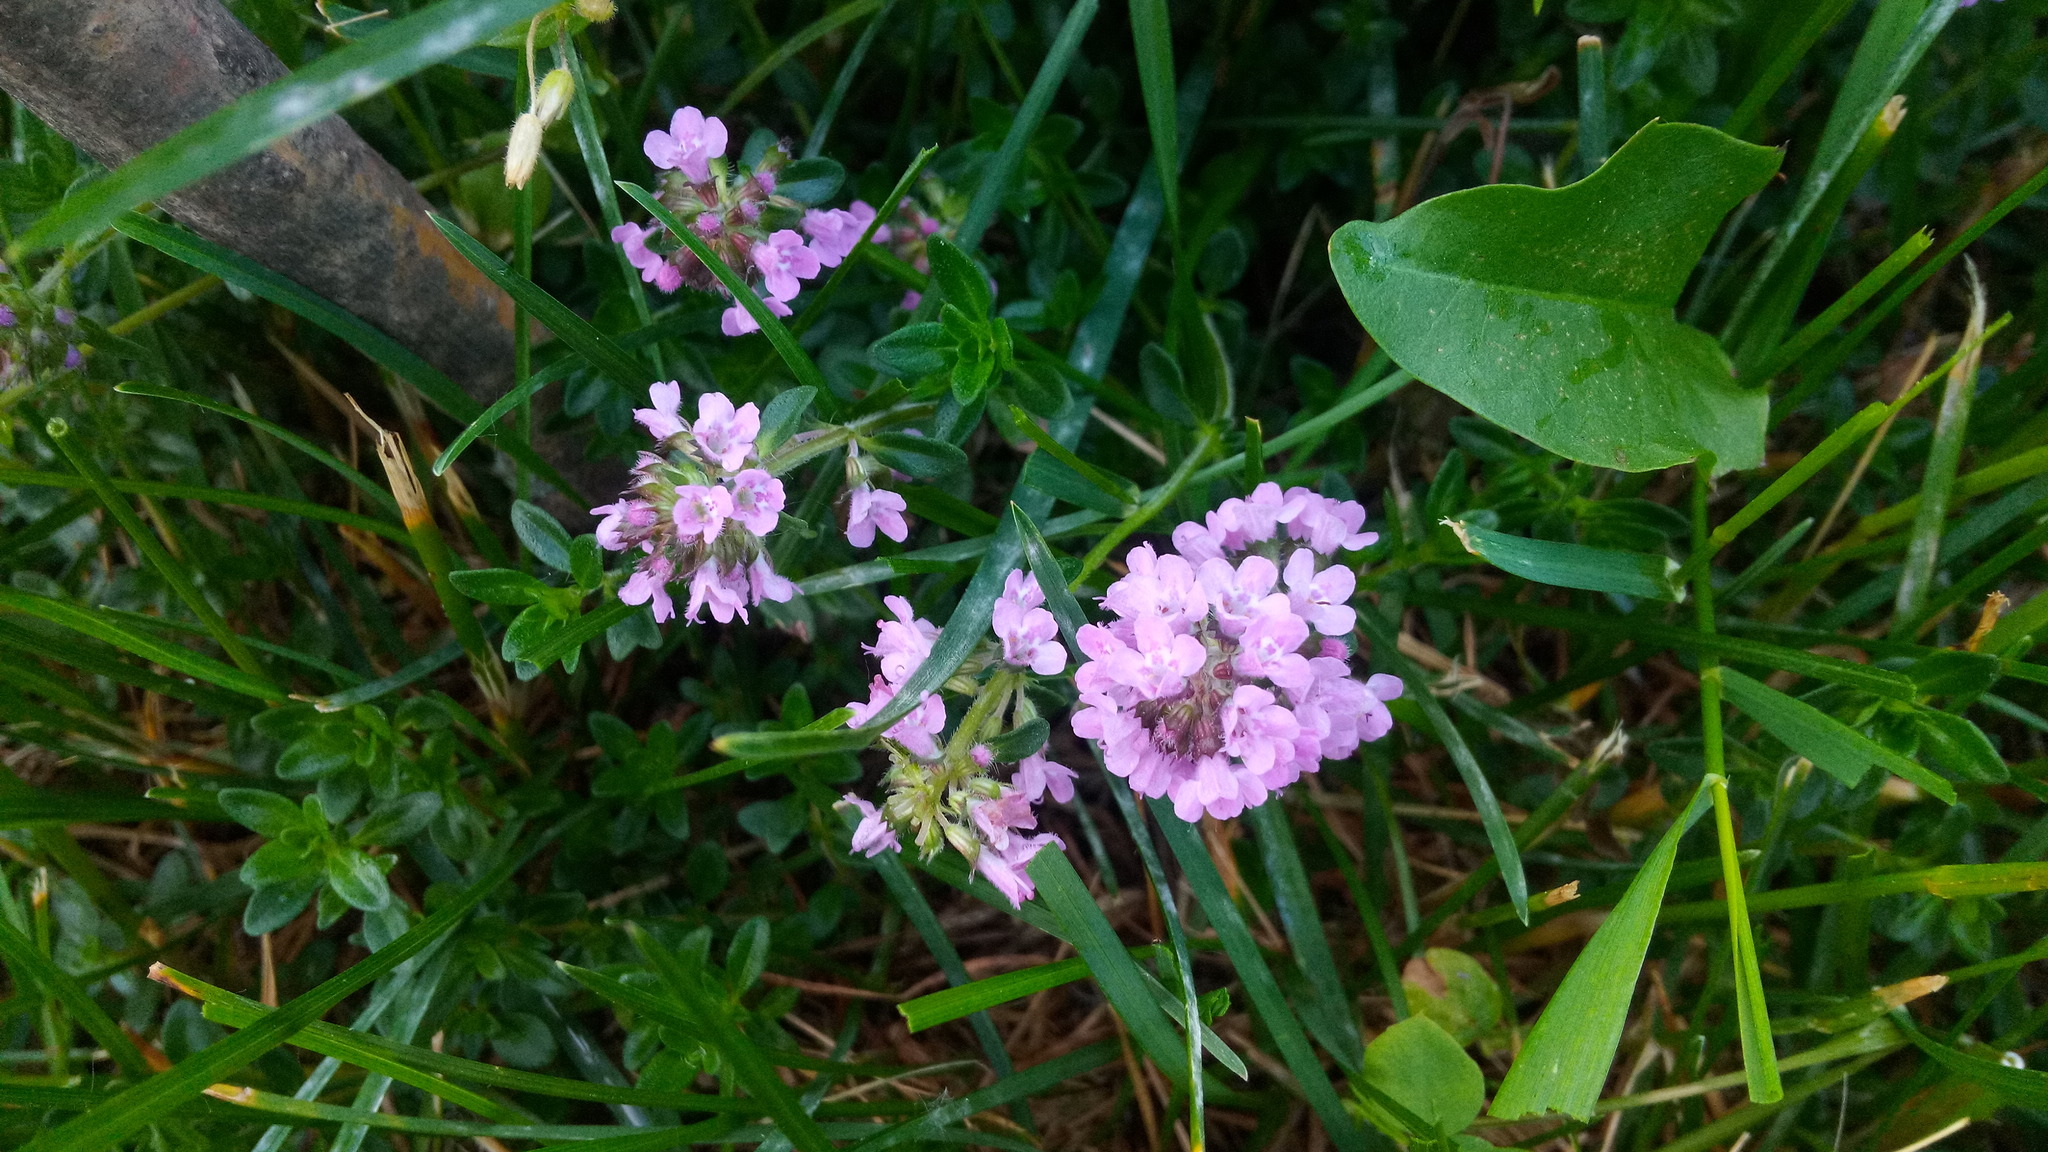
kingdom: Plantae
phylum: Tracheophyta
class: Magnoliopsida
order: Lamiales
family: Lamiaceae
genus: Thymus
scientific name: Thymus pulegioides
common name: Large thyme
